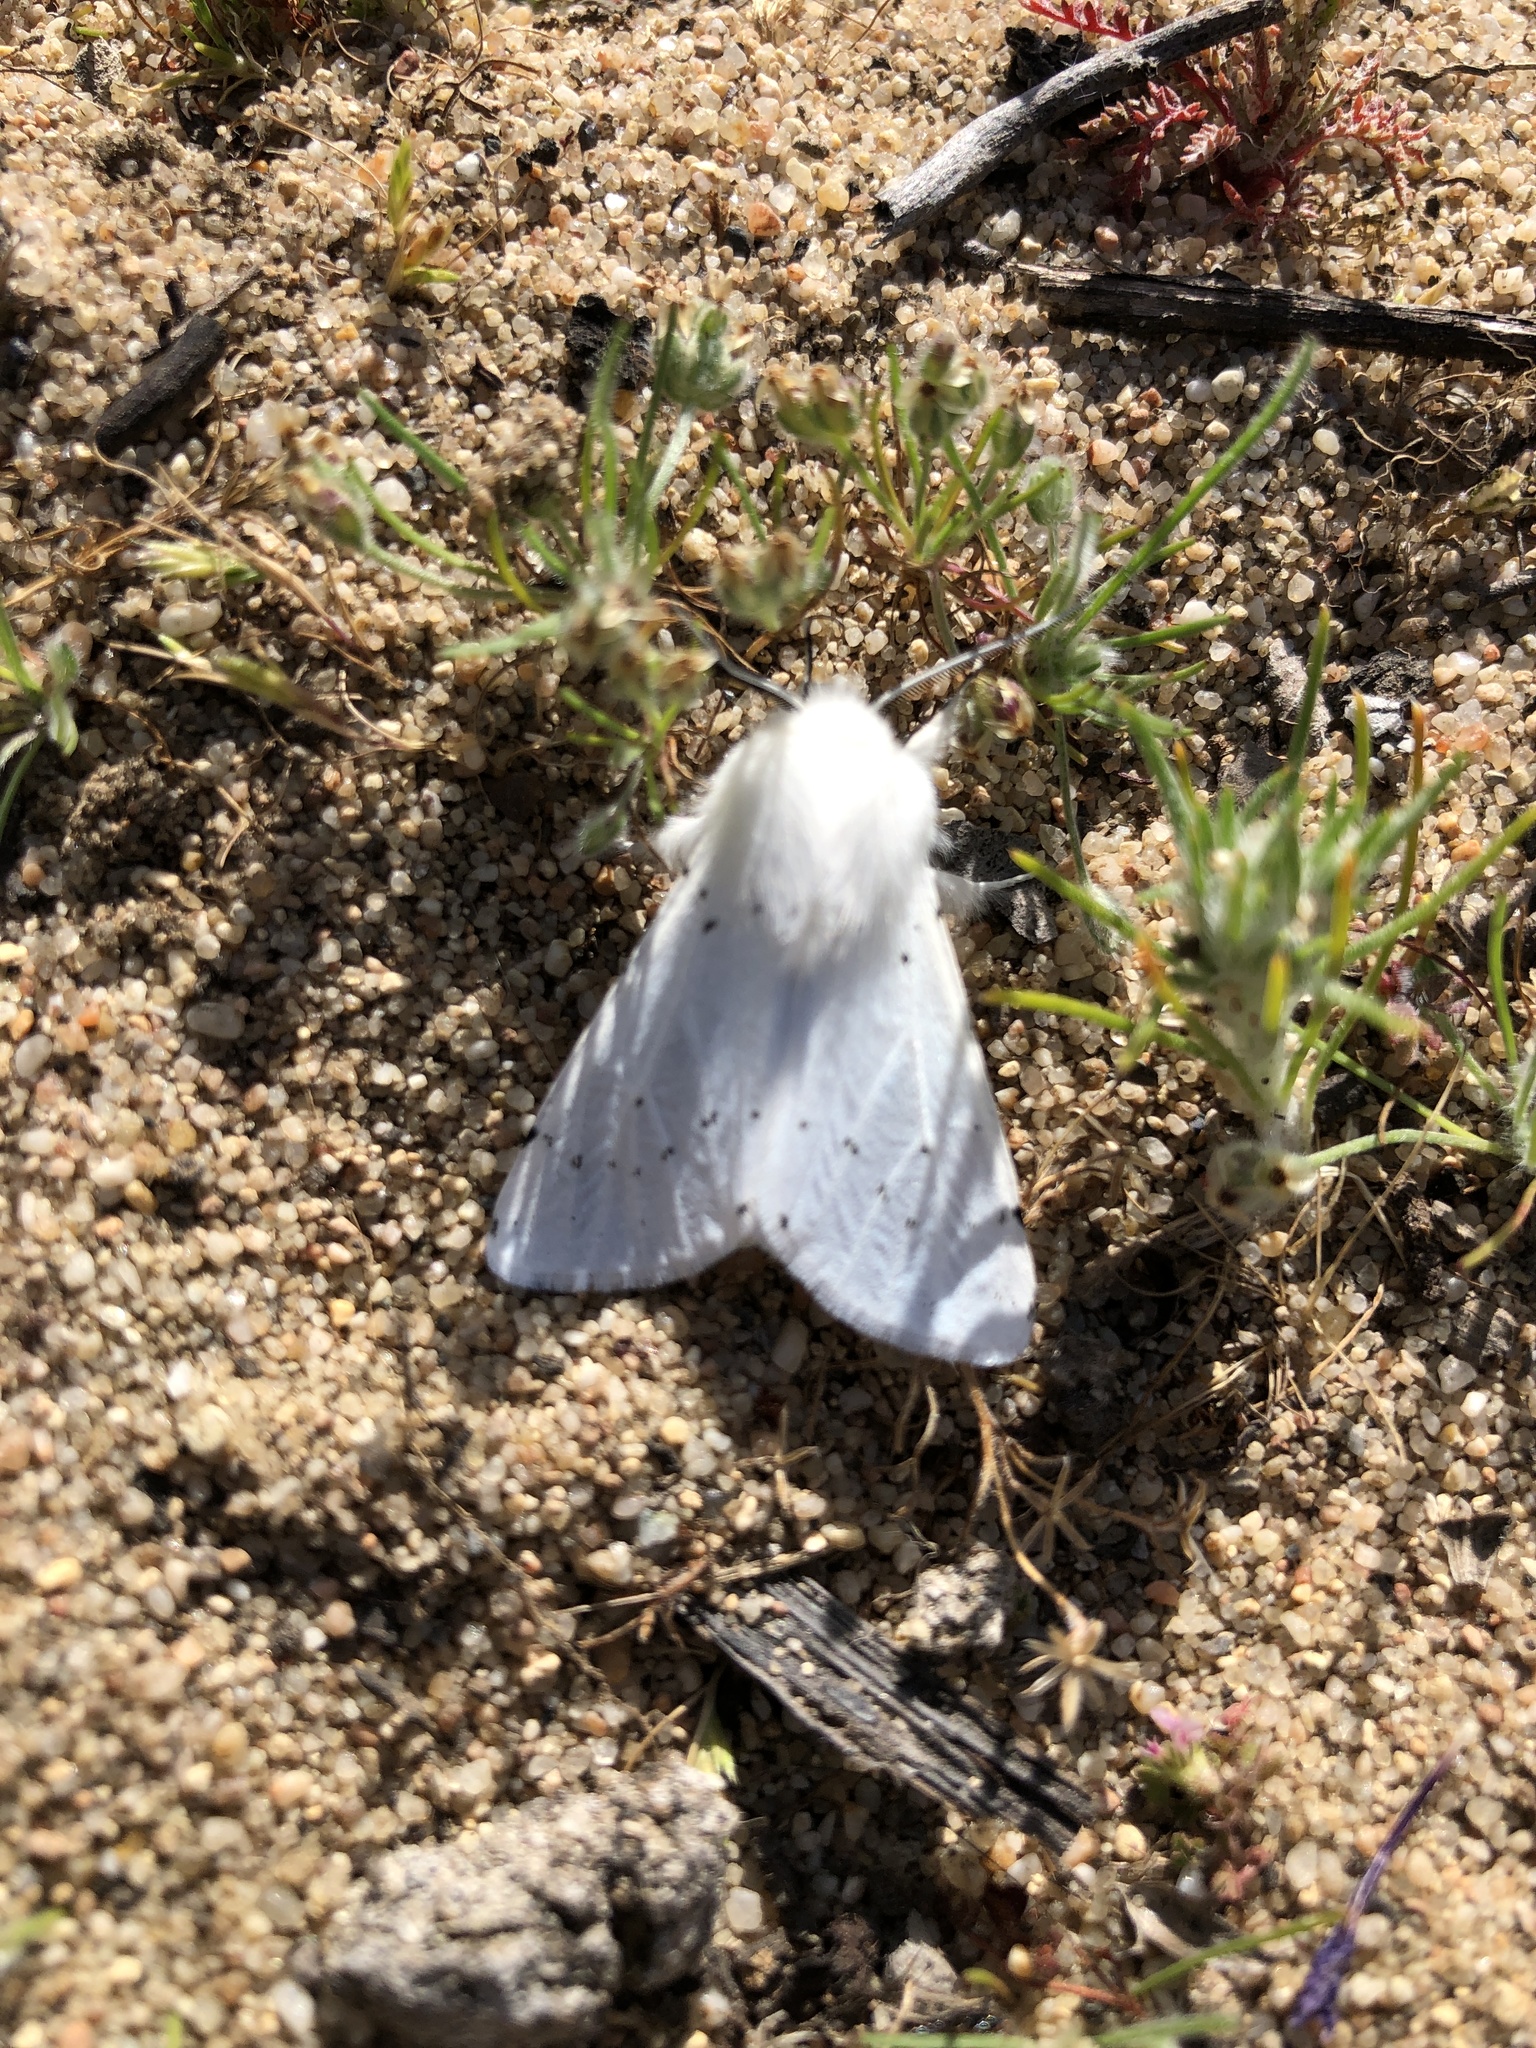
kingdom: Animalia
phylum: Arthropoda
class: Insecta
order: Lepidoptera
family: Erebidae
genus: Spilosoma
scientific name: Spilosoma vestalis
